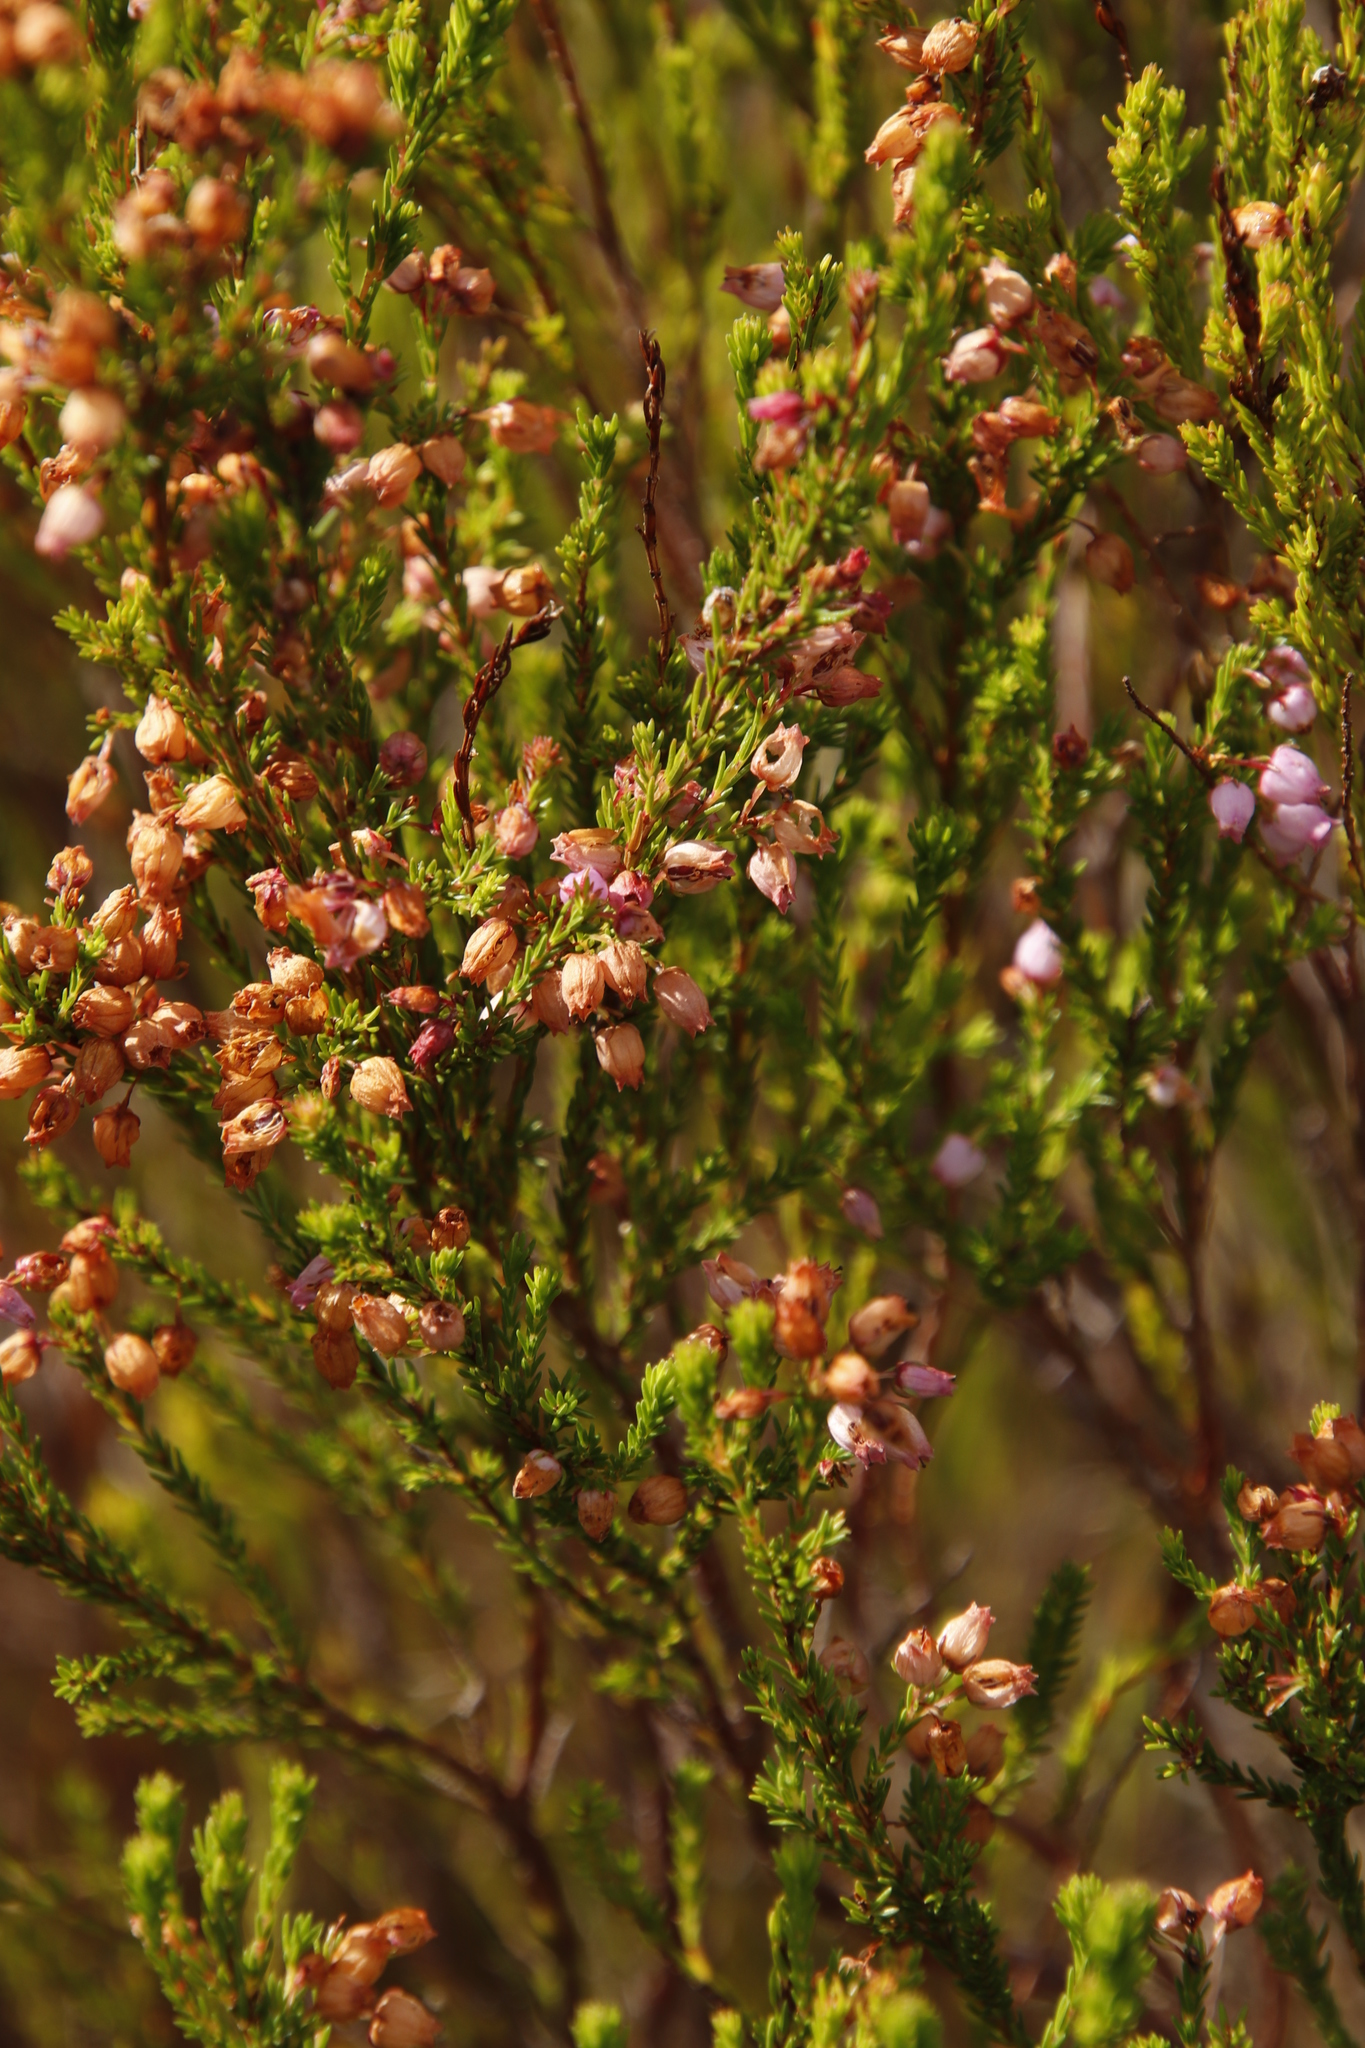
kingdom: Plantae
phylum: Tracheophyta
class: Magnoliopsida
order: Ericales
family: Ericaceae
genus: Erica
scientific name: Erica laeta
